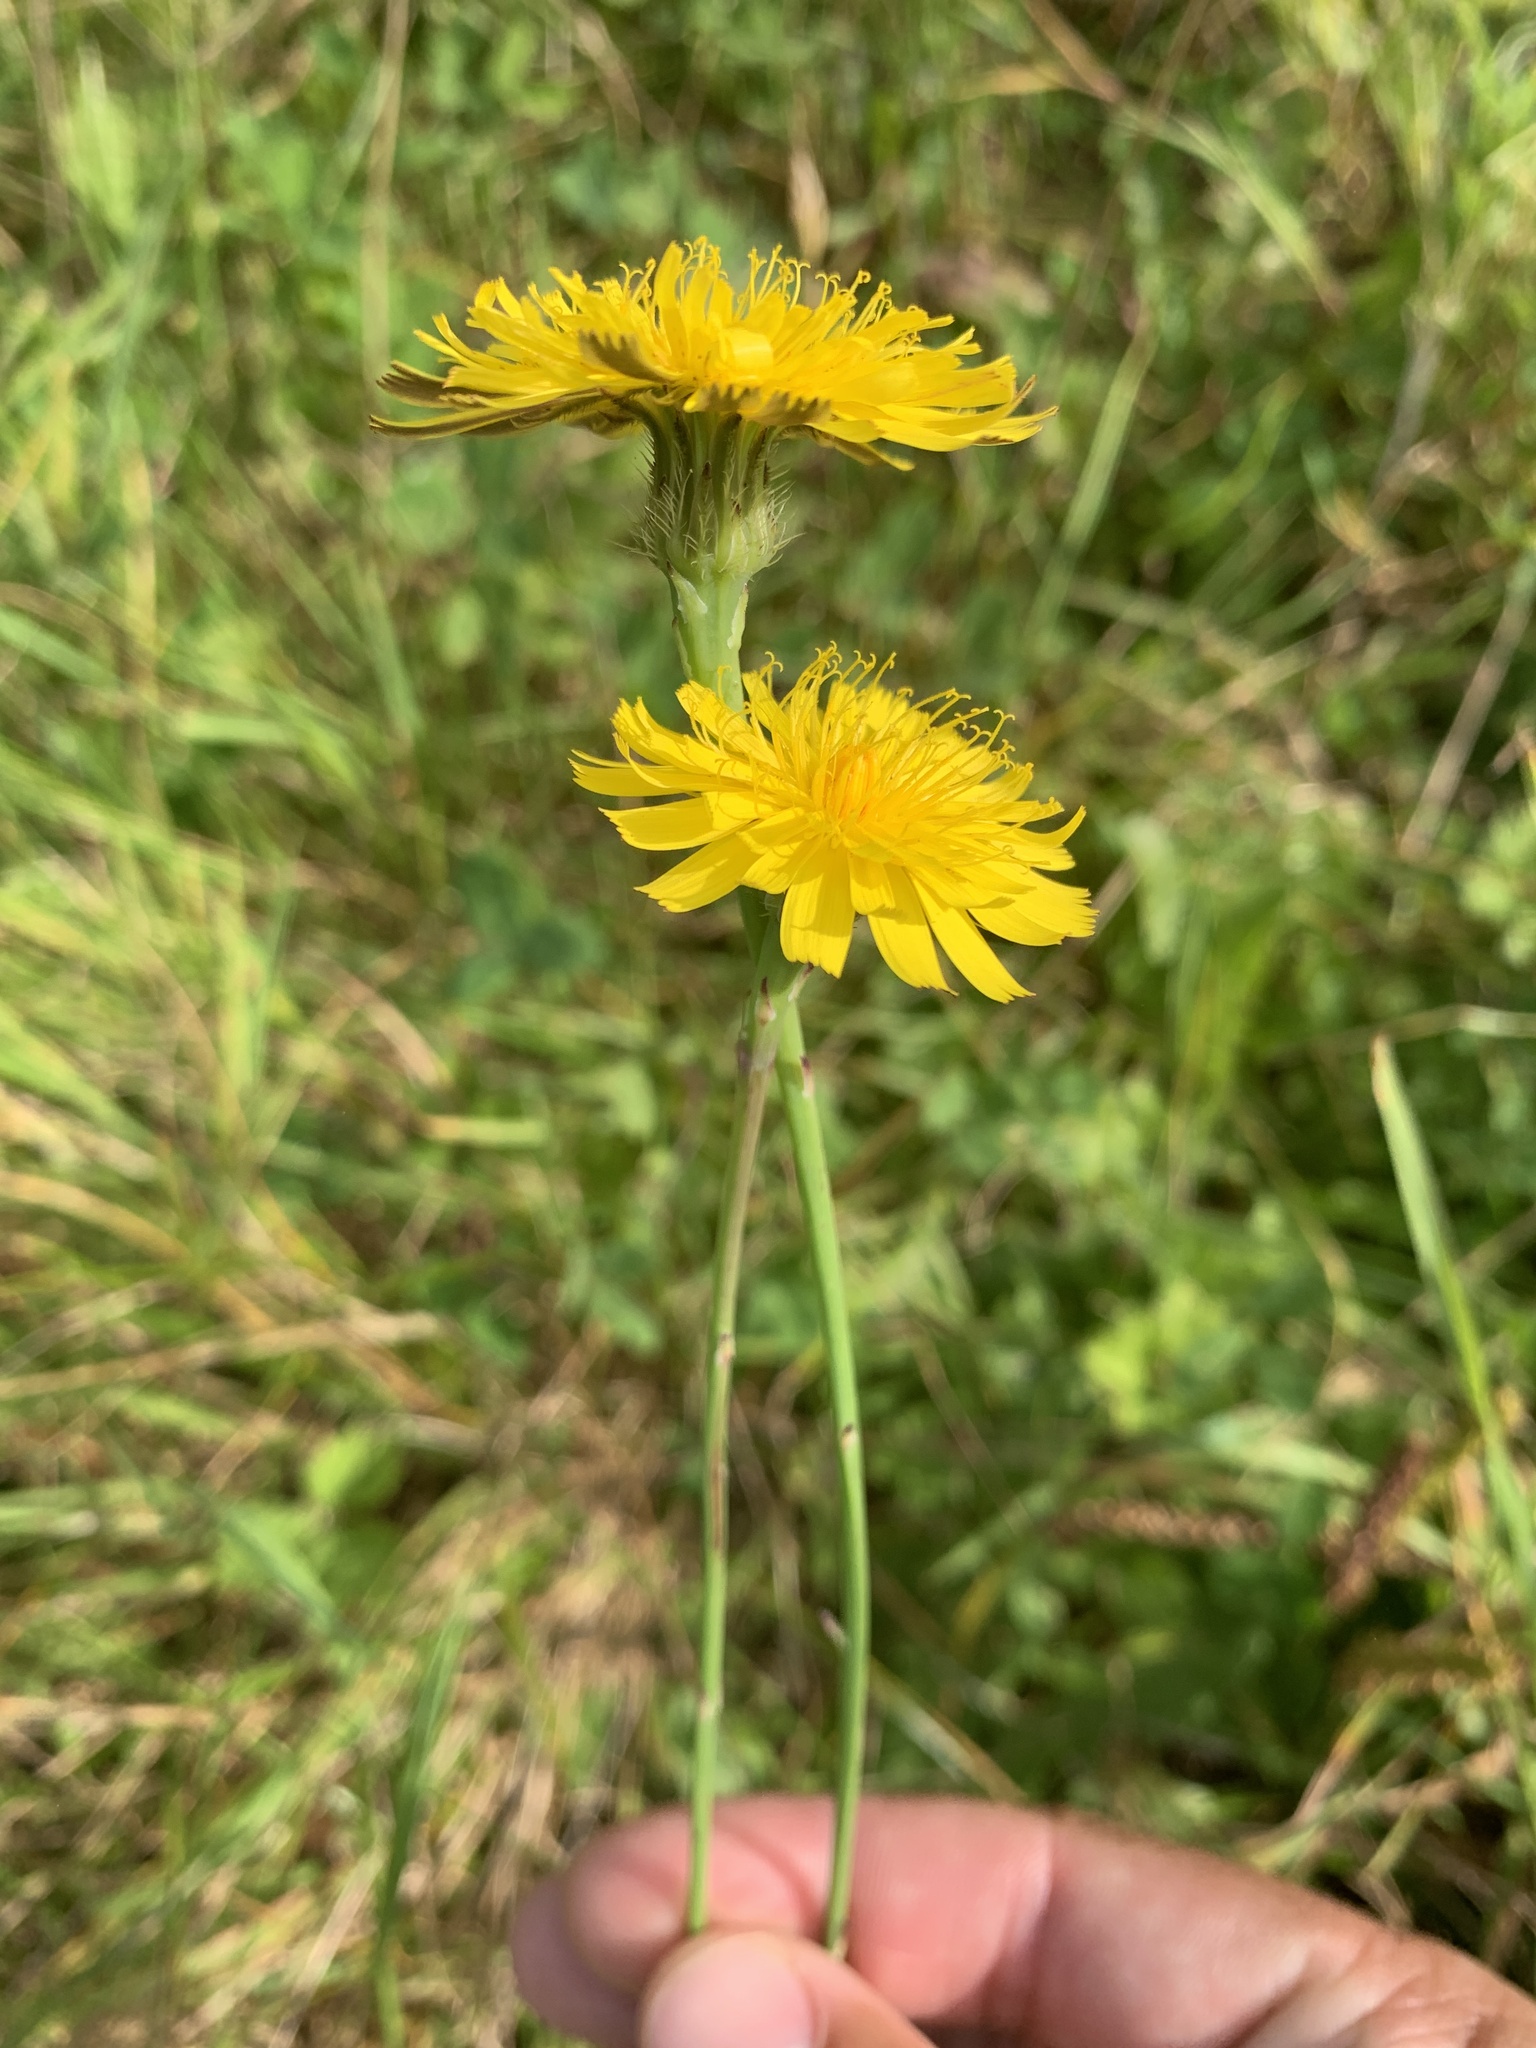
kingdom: Plantae
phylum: Tracheophyta
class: Magnoliopsida
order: Asterales
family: Asteraceae
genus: Hypochaeris
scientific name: Hypochaeris radicata
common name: Flatweed
